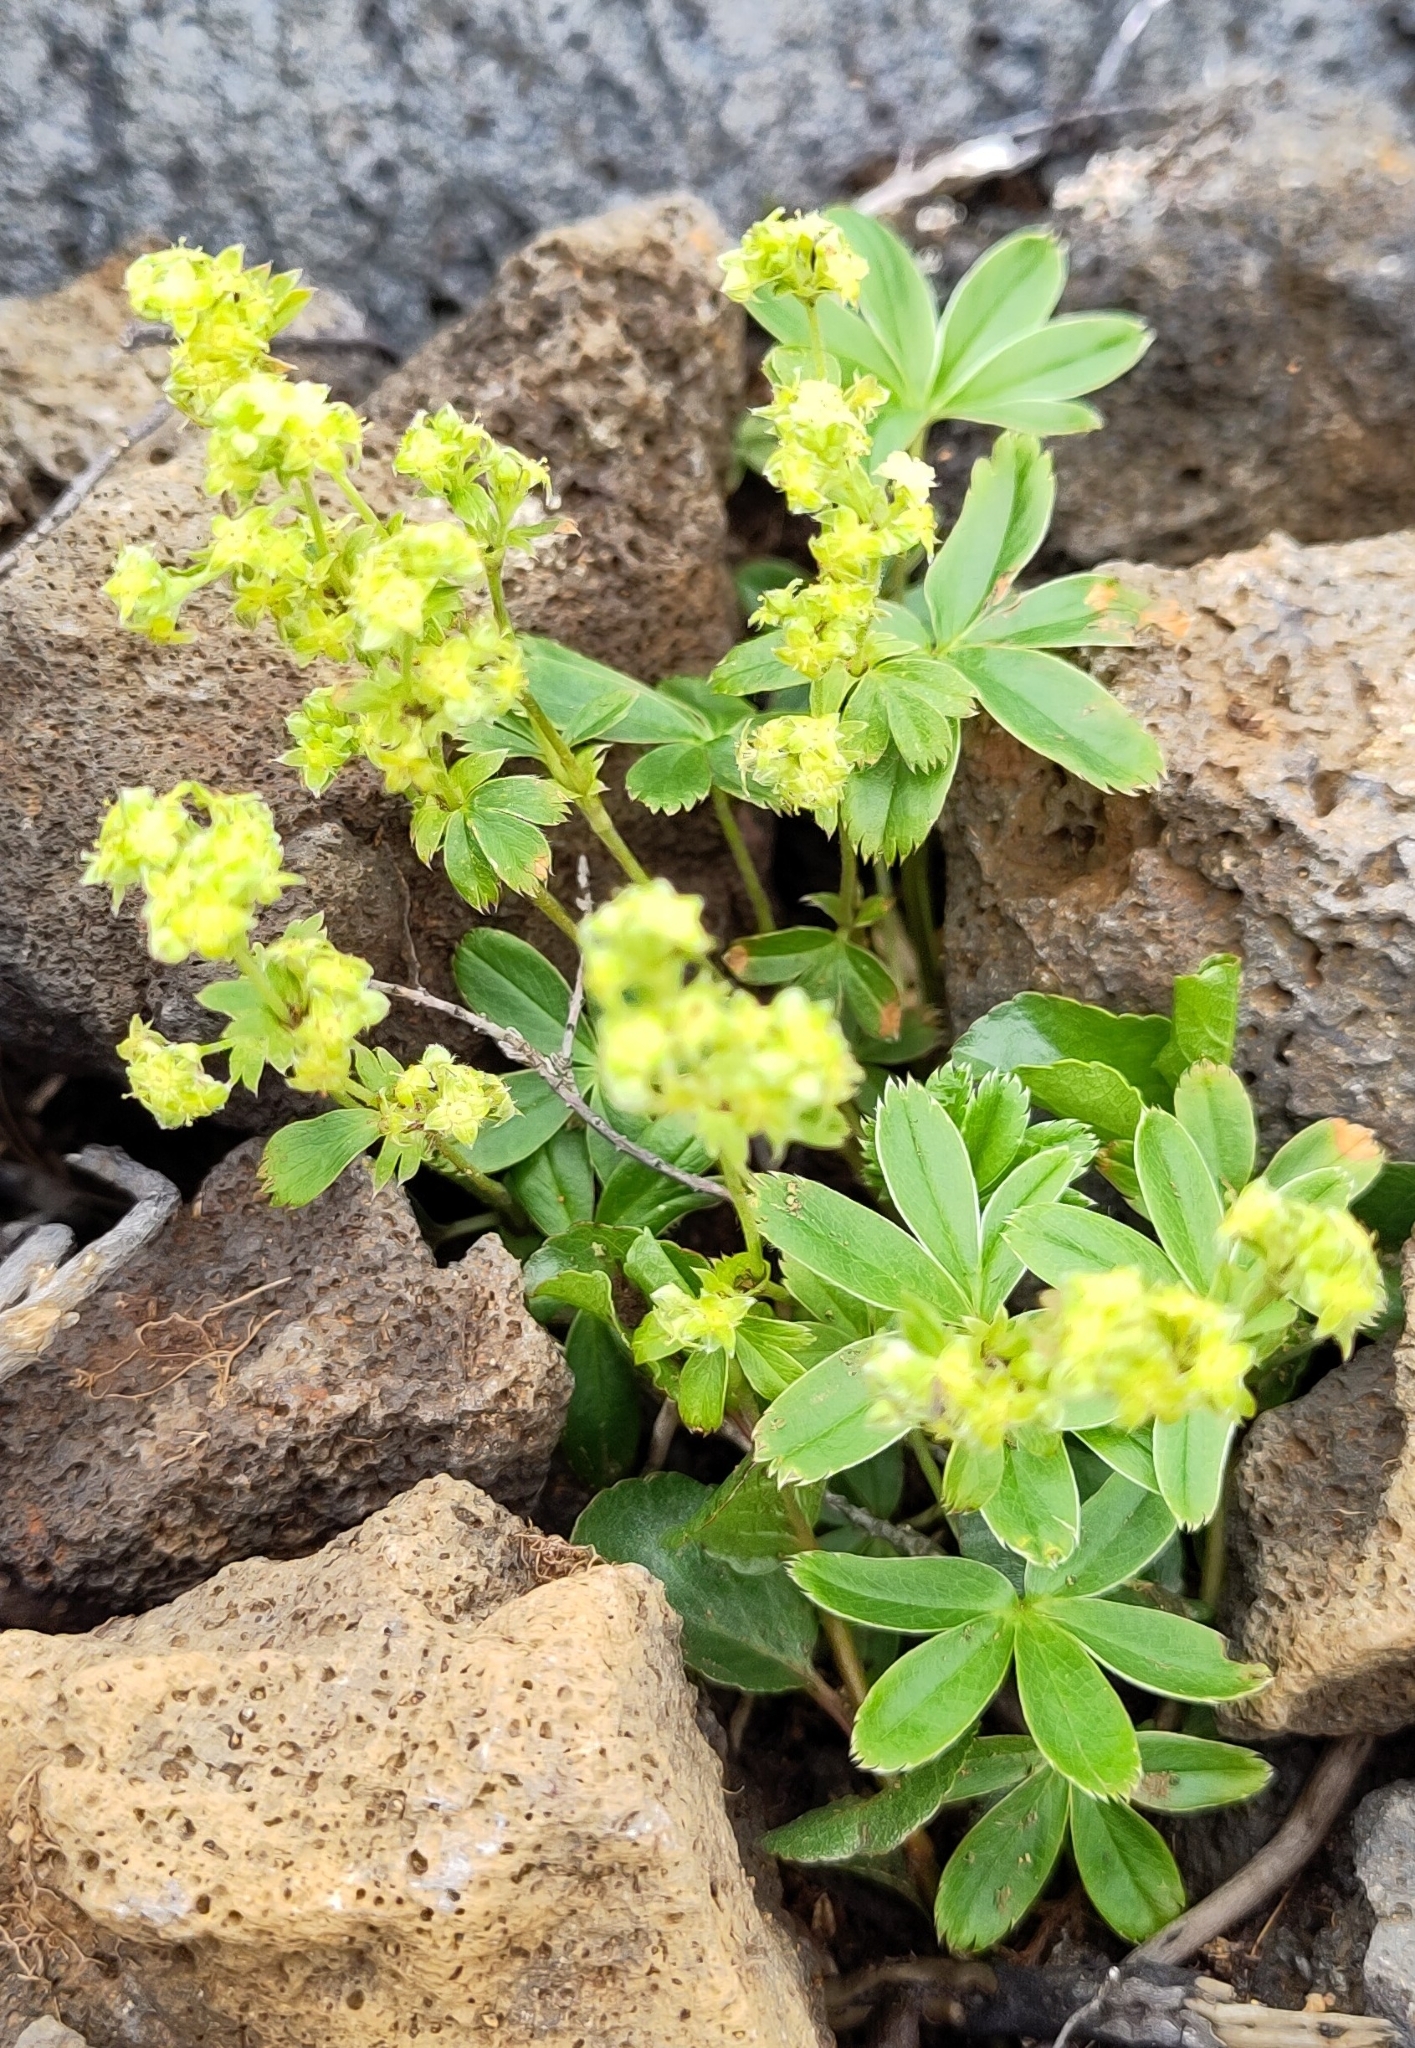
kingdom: Plantae
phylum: Tracheophyta
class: Magnoliopsida
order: Rosales
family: Rosaceae
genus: Alchemilla
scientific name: Alchemilla alpina
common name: Alpine lady's-mantle
